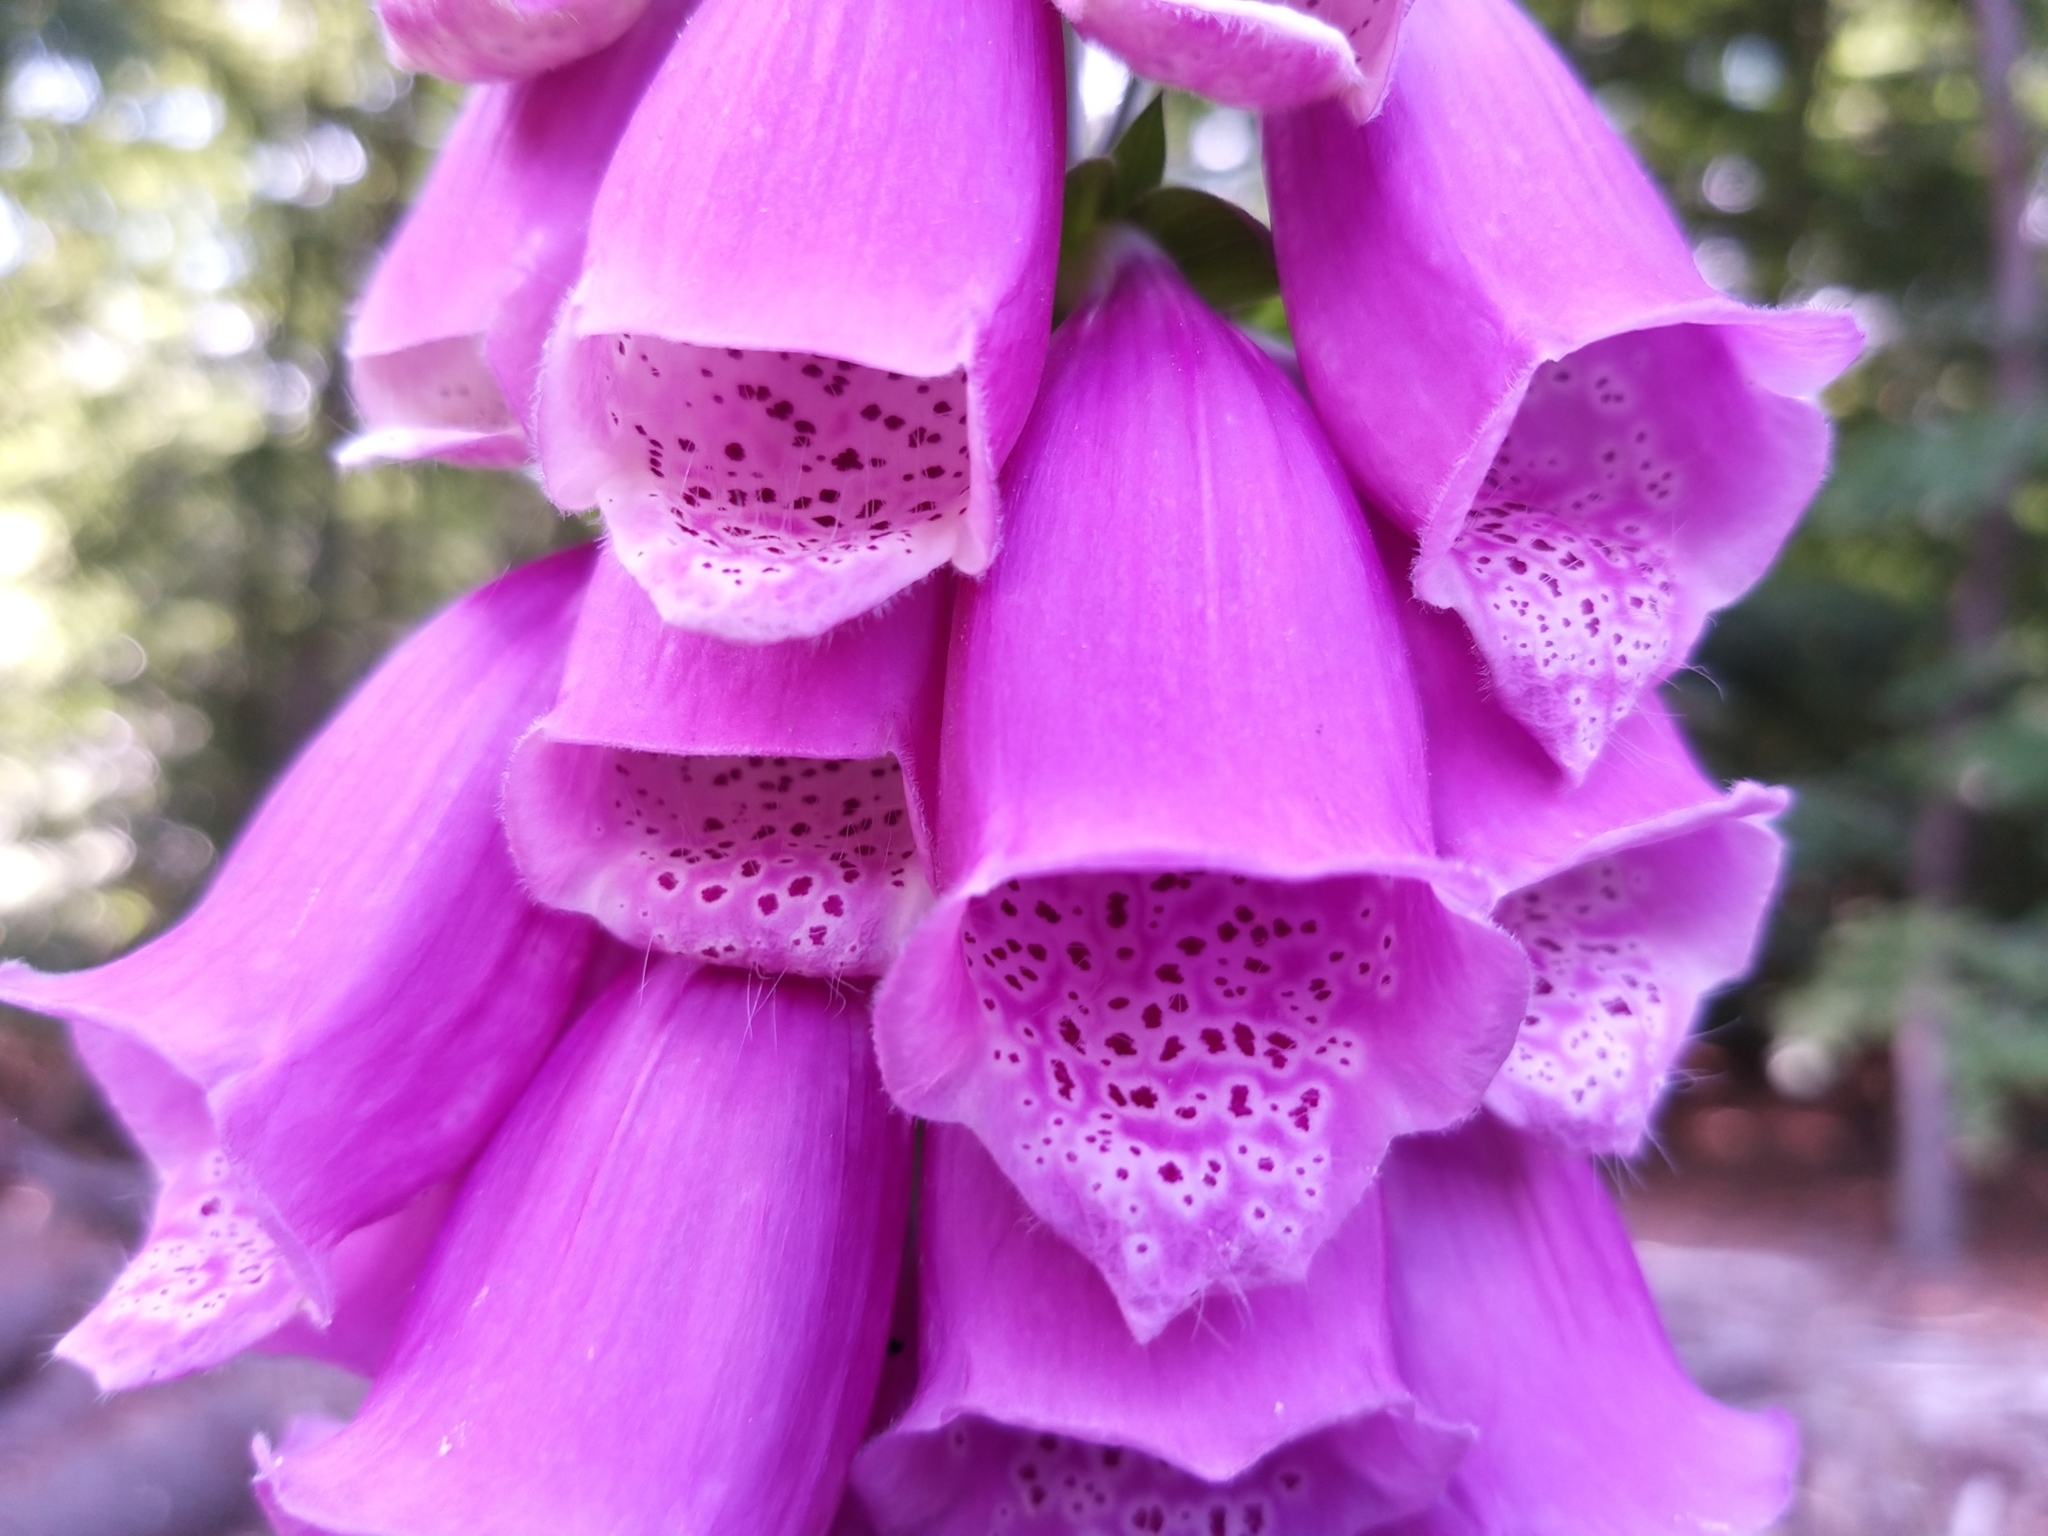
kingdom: Plantae
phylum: Tracheophyta
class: Magnoliopsida
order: Lamiales
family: Plantaginaceae
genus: Digitalis
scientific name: Digitalis purpurea
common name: Foxglove
